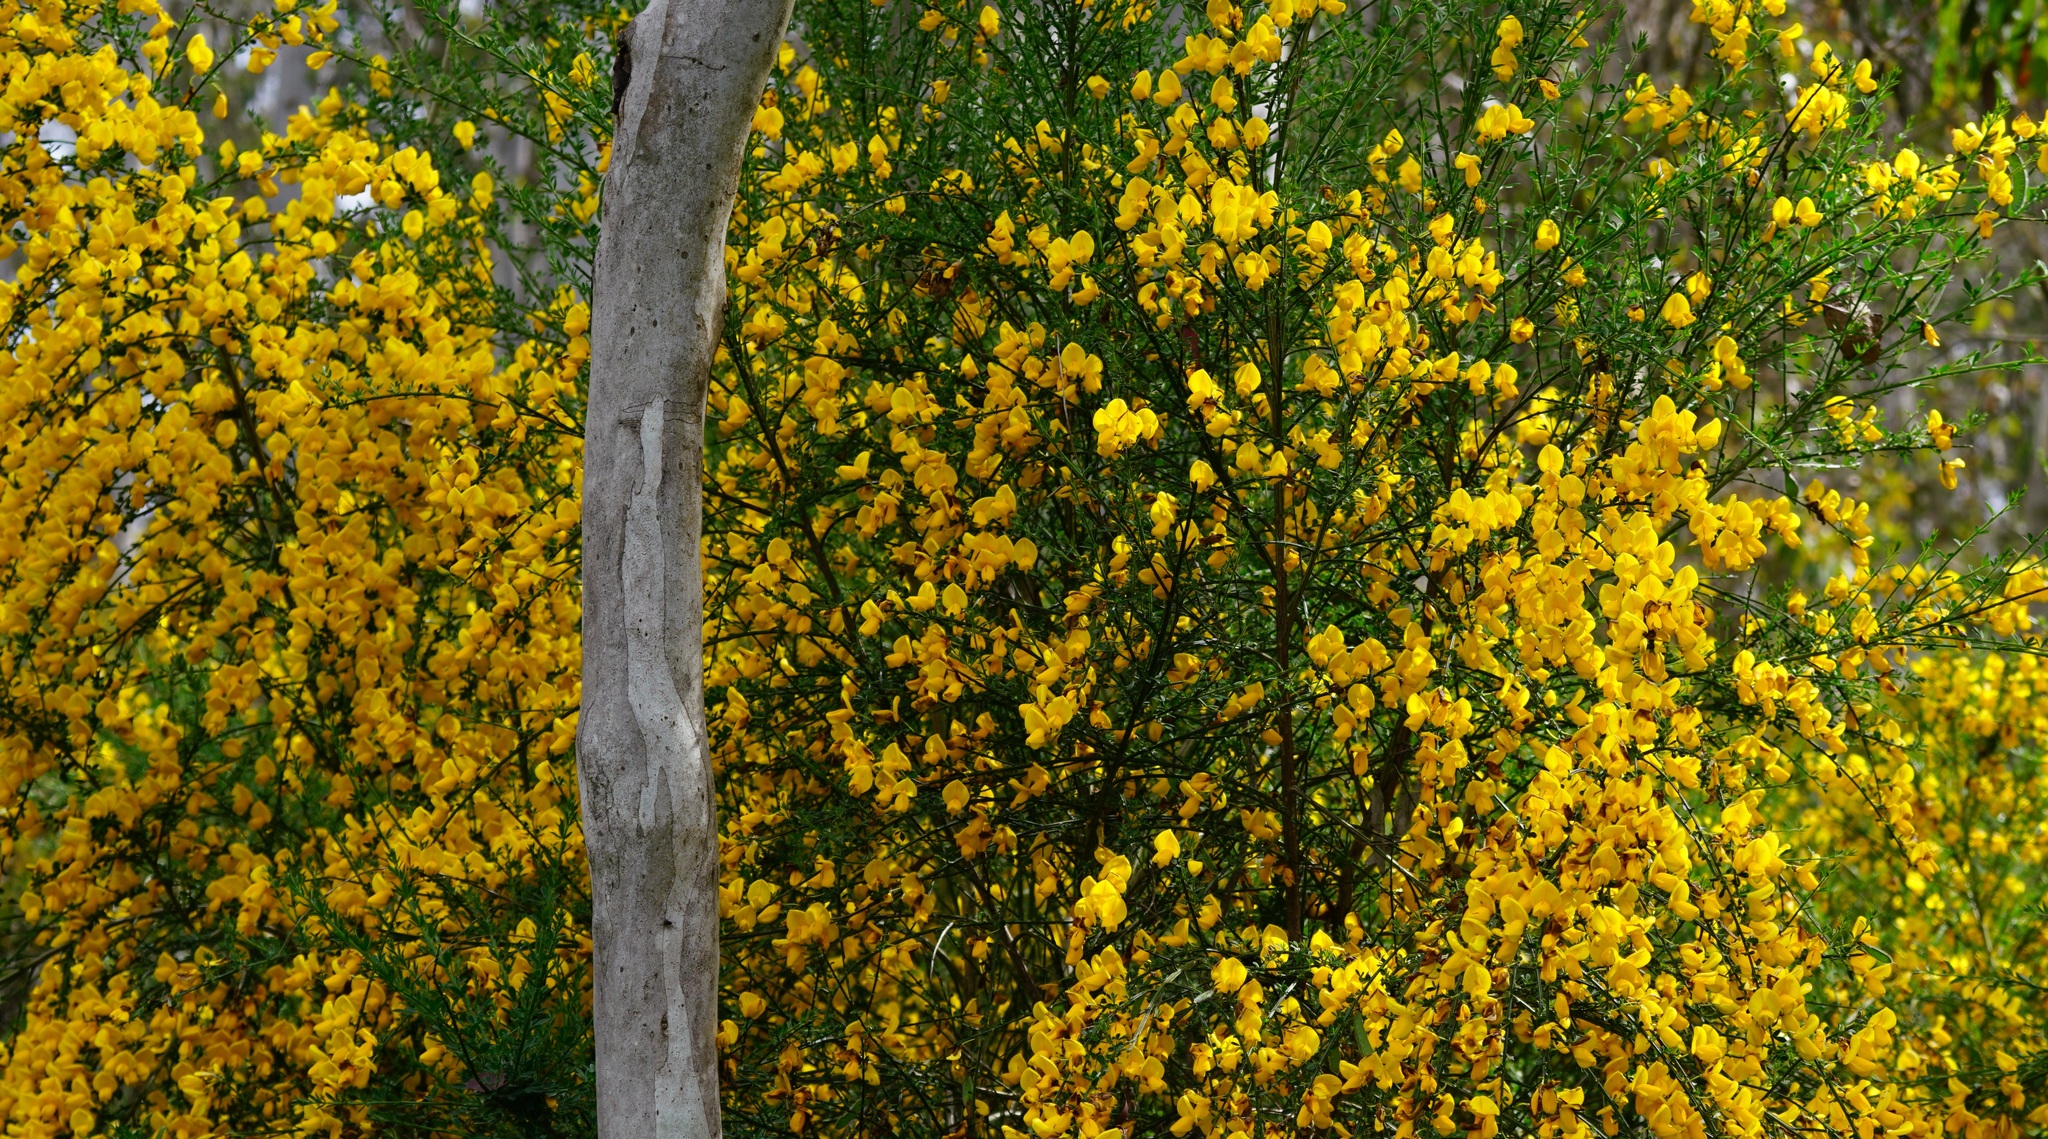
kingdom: Plantae
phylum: Tracheophyta
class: Magnoliopsida
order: Fabales
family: Fabaceae
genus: Cytisus
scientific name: Cytisus scoparius
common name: Scotch broom
